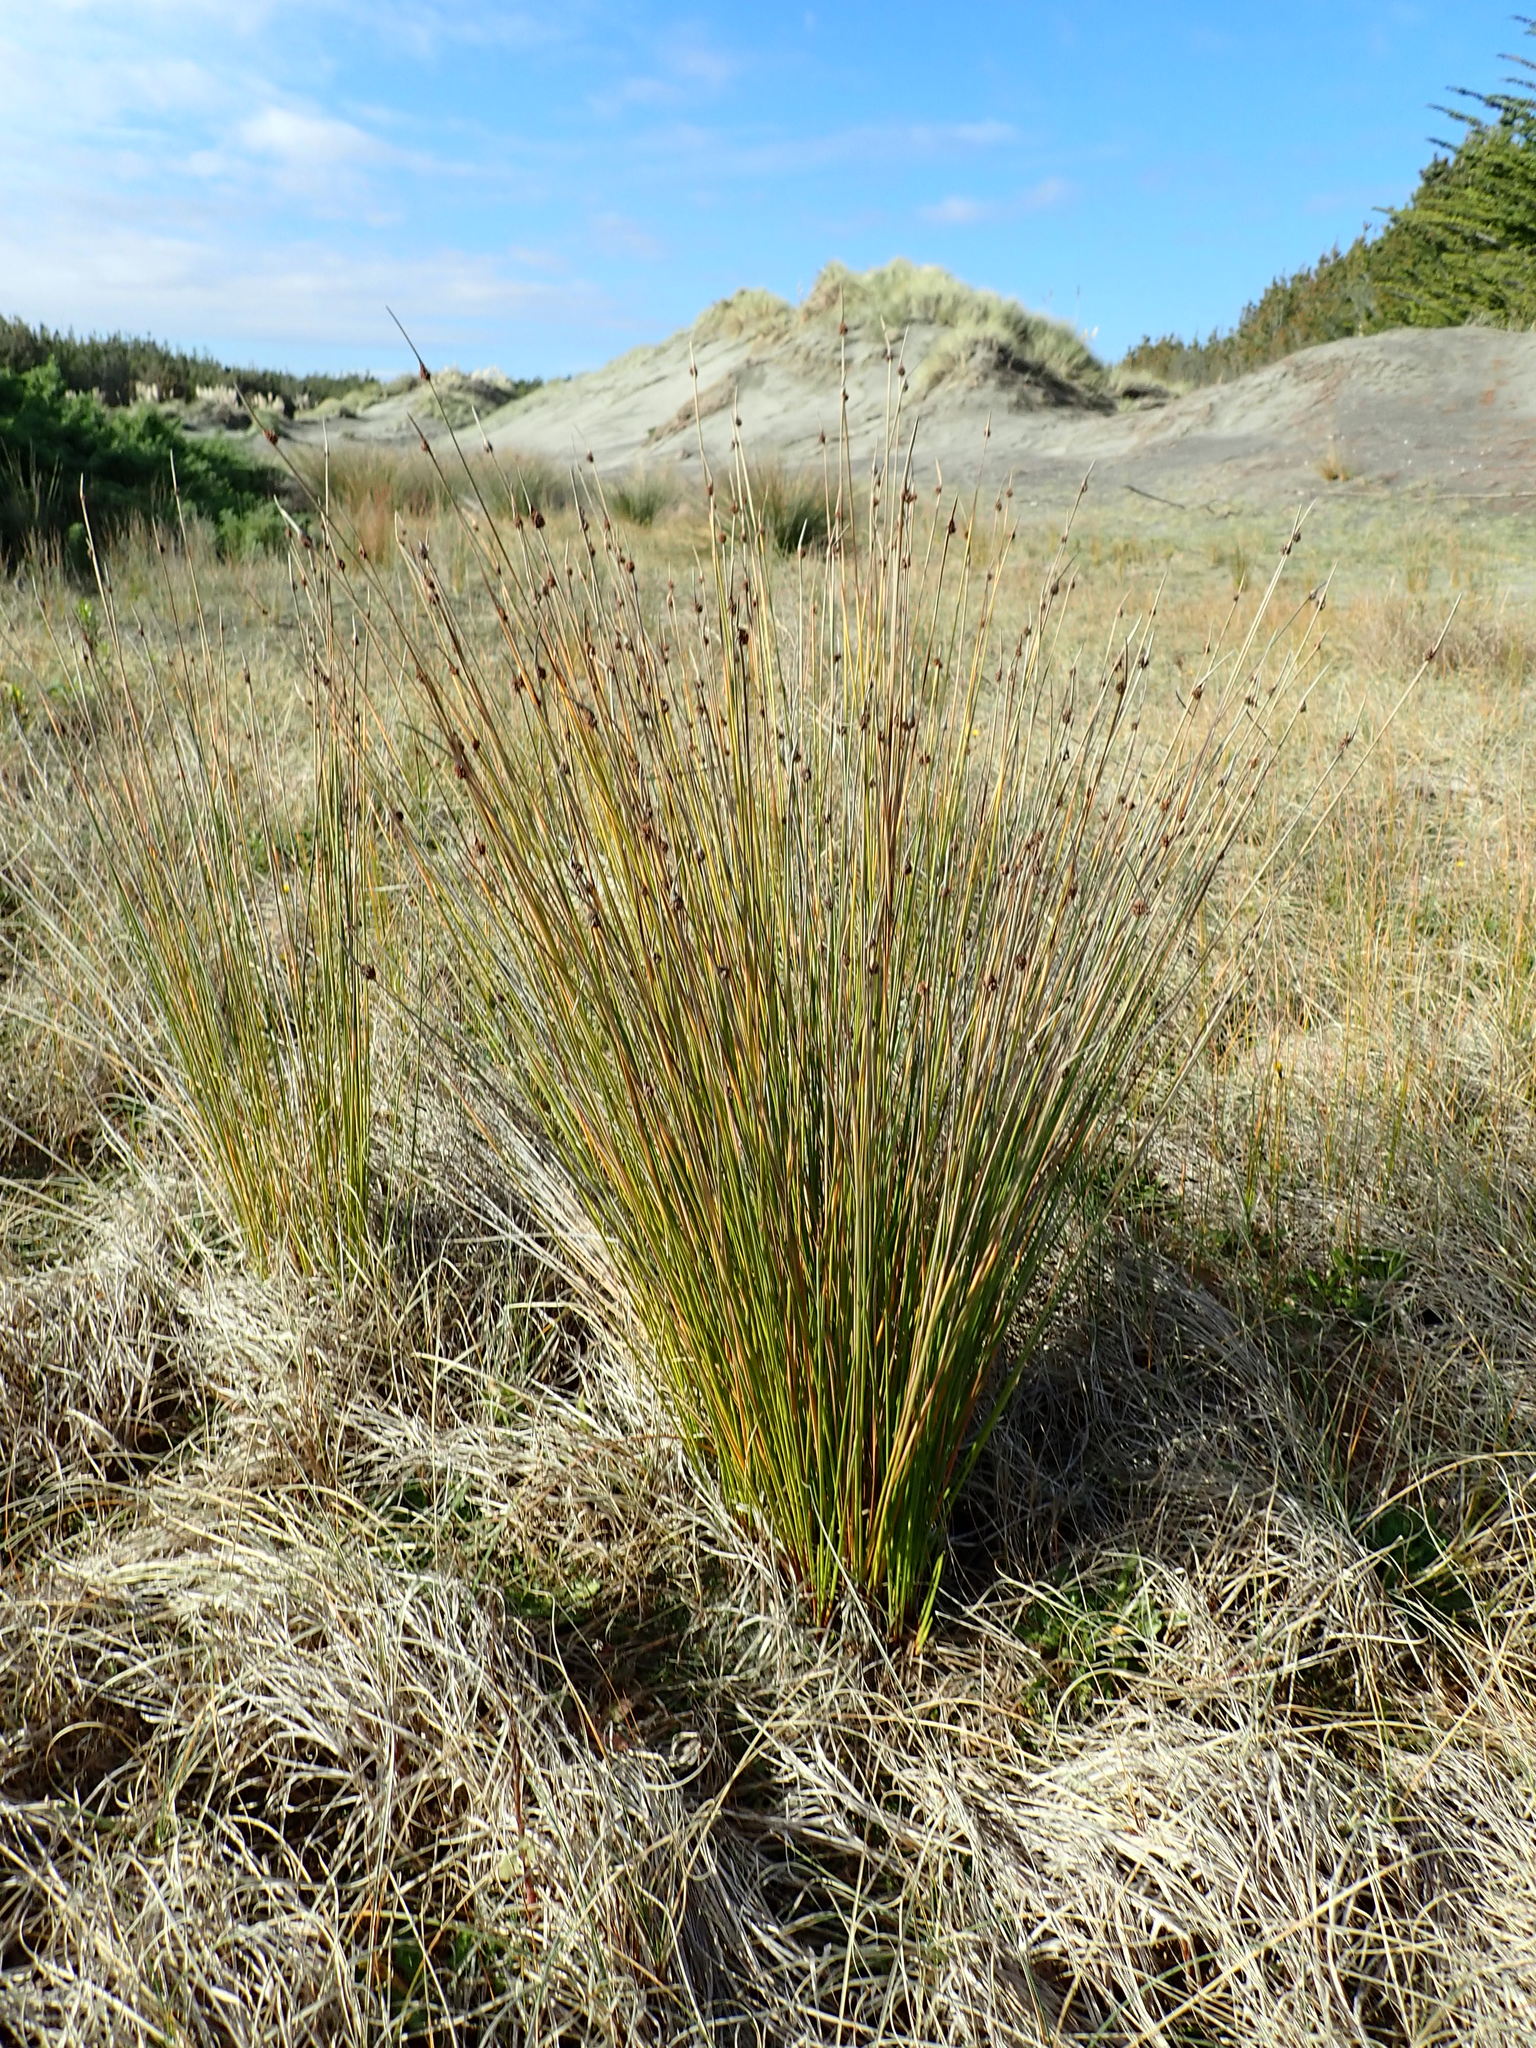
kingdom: Plantae
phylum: Tracheophyta
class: Liliopsida
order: Poales
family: Cyperaceae
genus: Ficinia
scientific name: Ficinia nodosa
